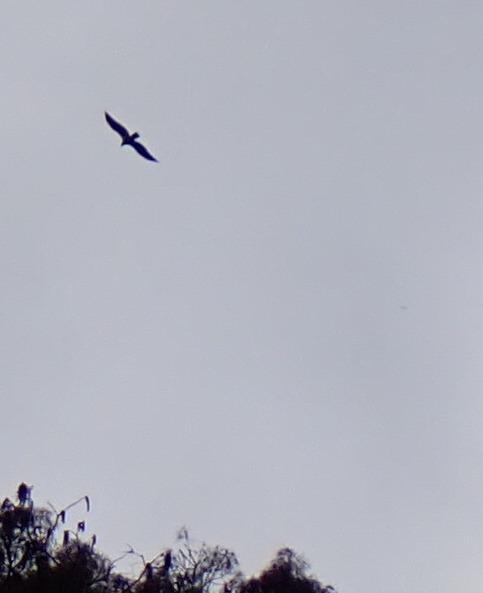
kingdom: Animalia
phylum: Chordata
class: Aves
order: Accipitriformes
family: Cathartidae
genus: Cathartes
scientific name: Cathartes aura
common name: Turkey vulture
